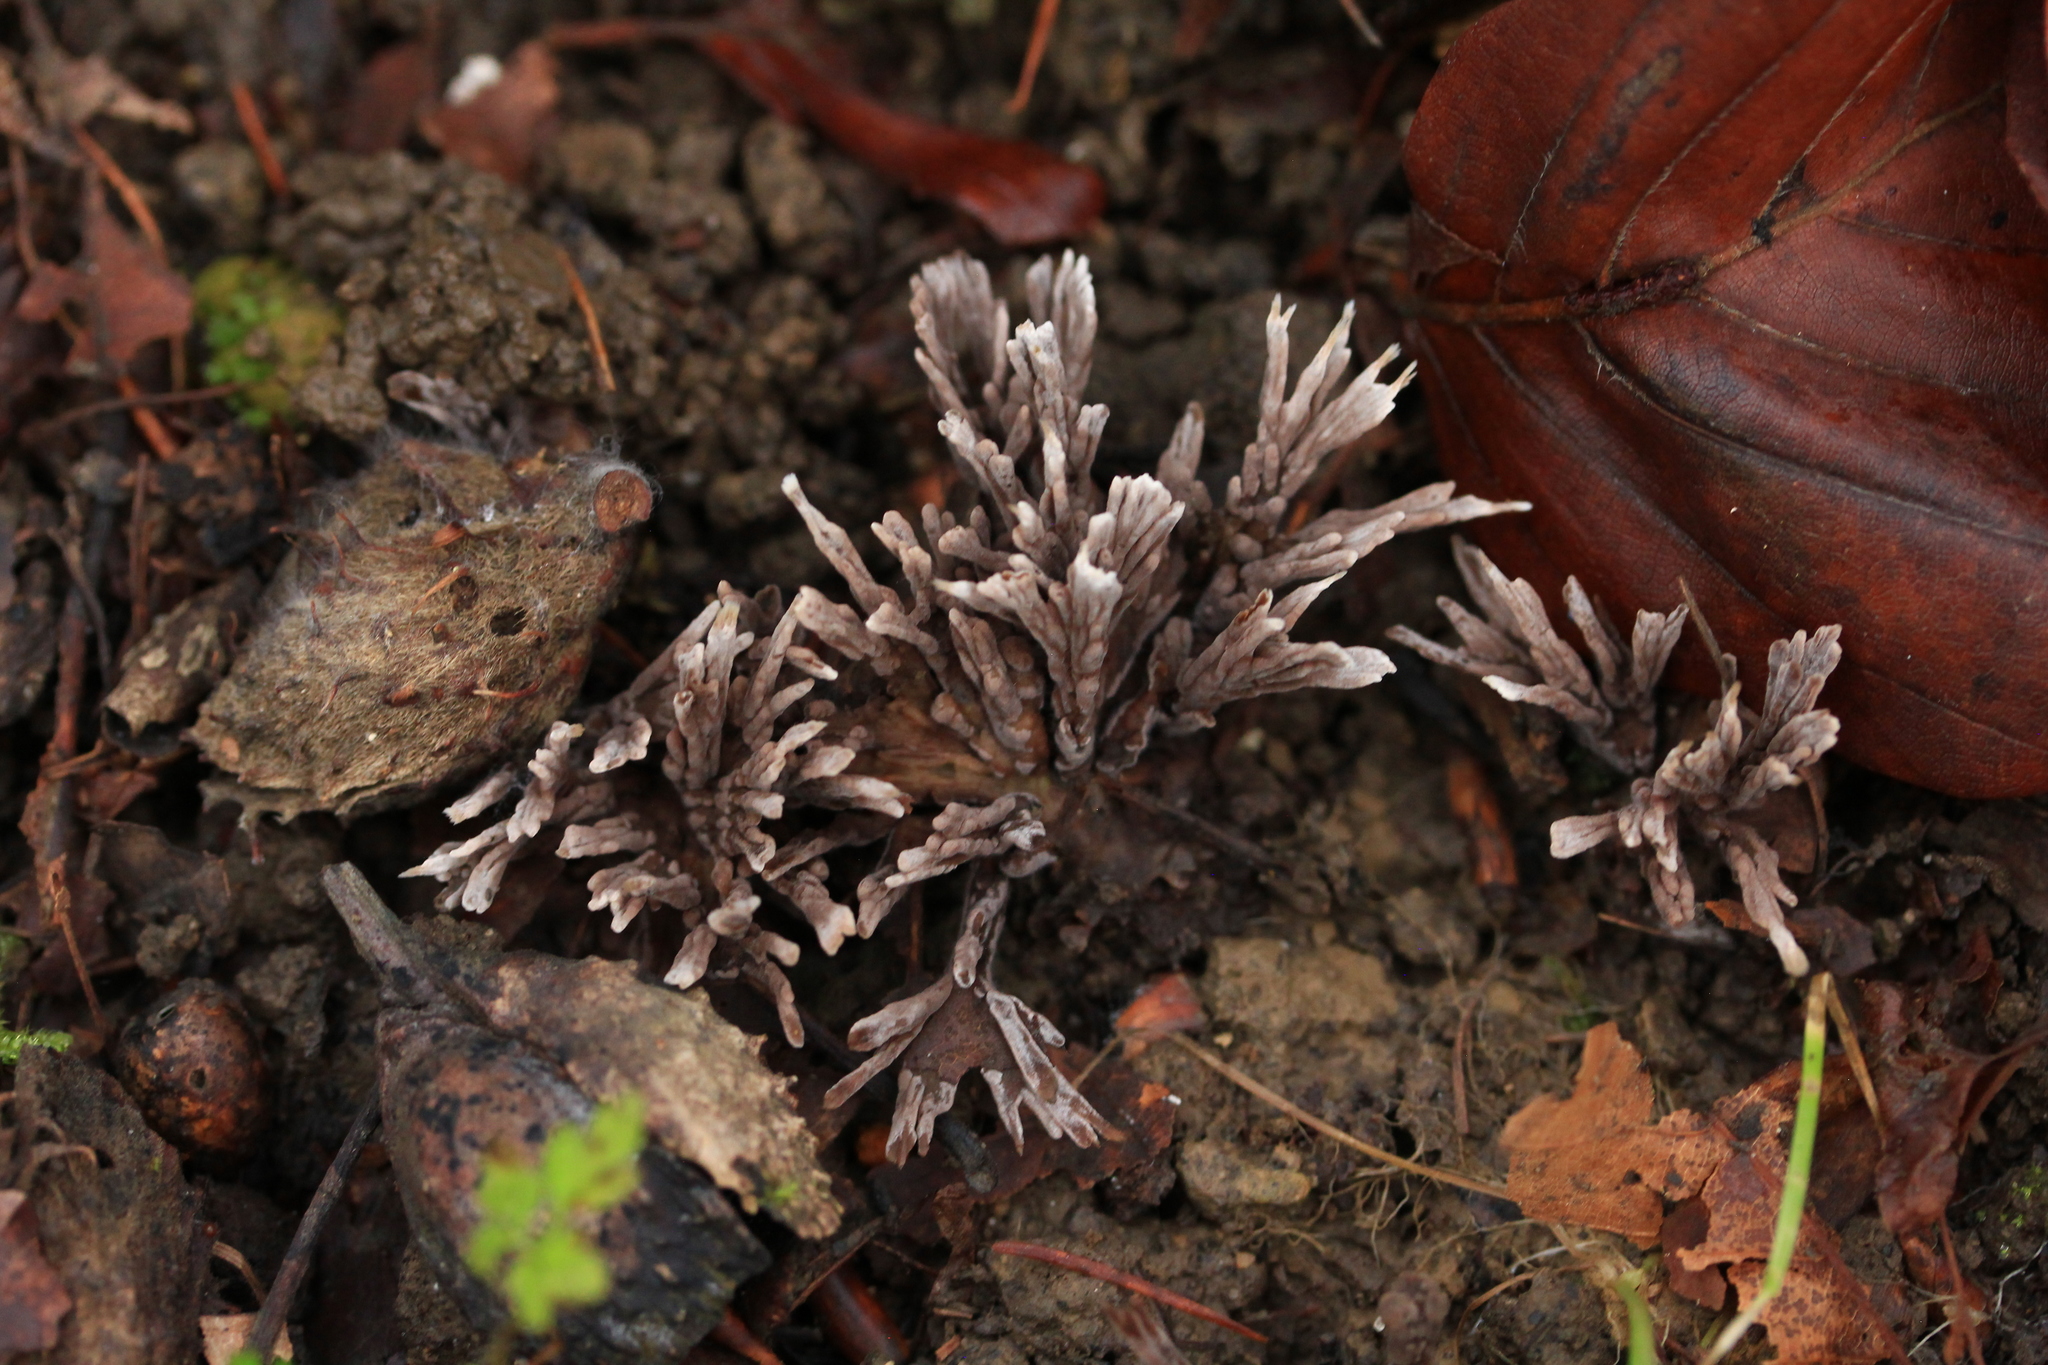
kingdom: Fungi
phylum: Basidiomycota
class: Agaricomycetes
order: Thelephorales
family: Thelephoraceae
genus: Thelephora
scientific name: Thelephora palmata
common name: Stinking earthfan
